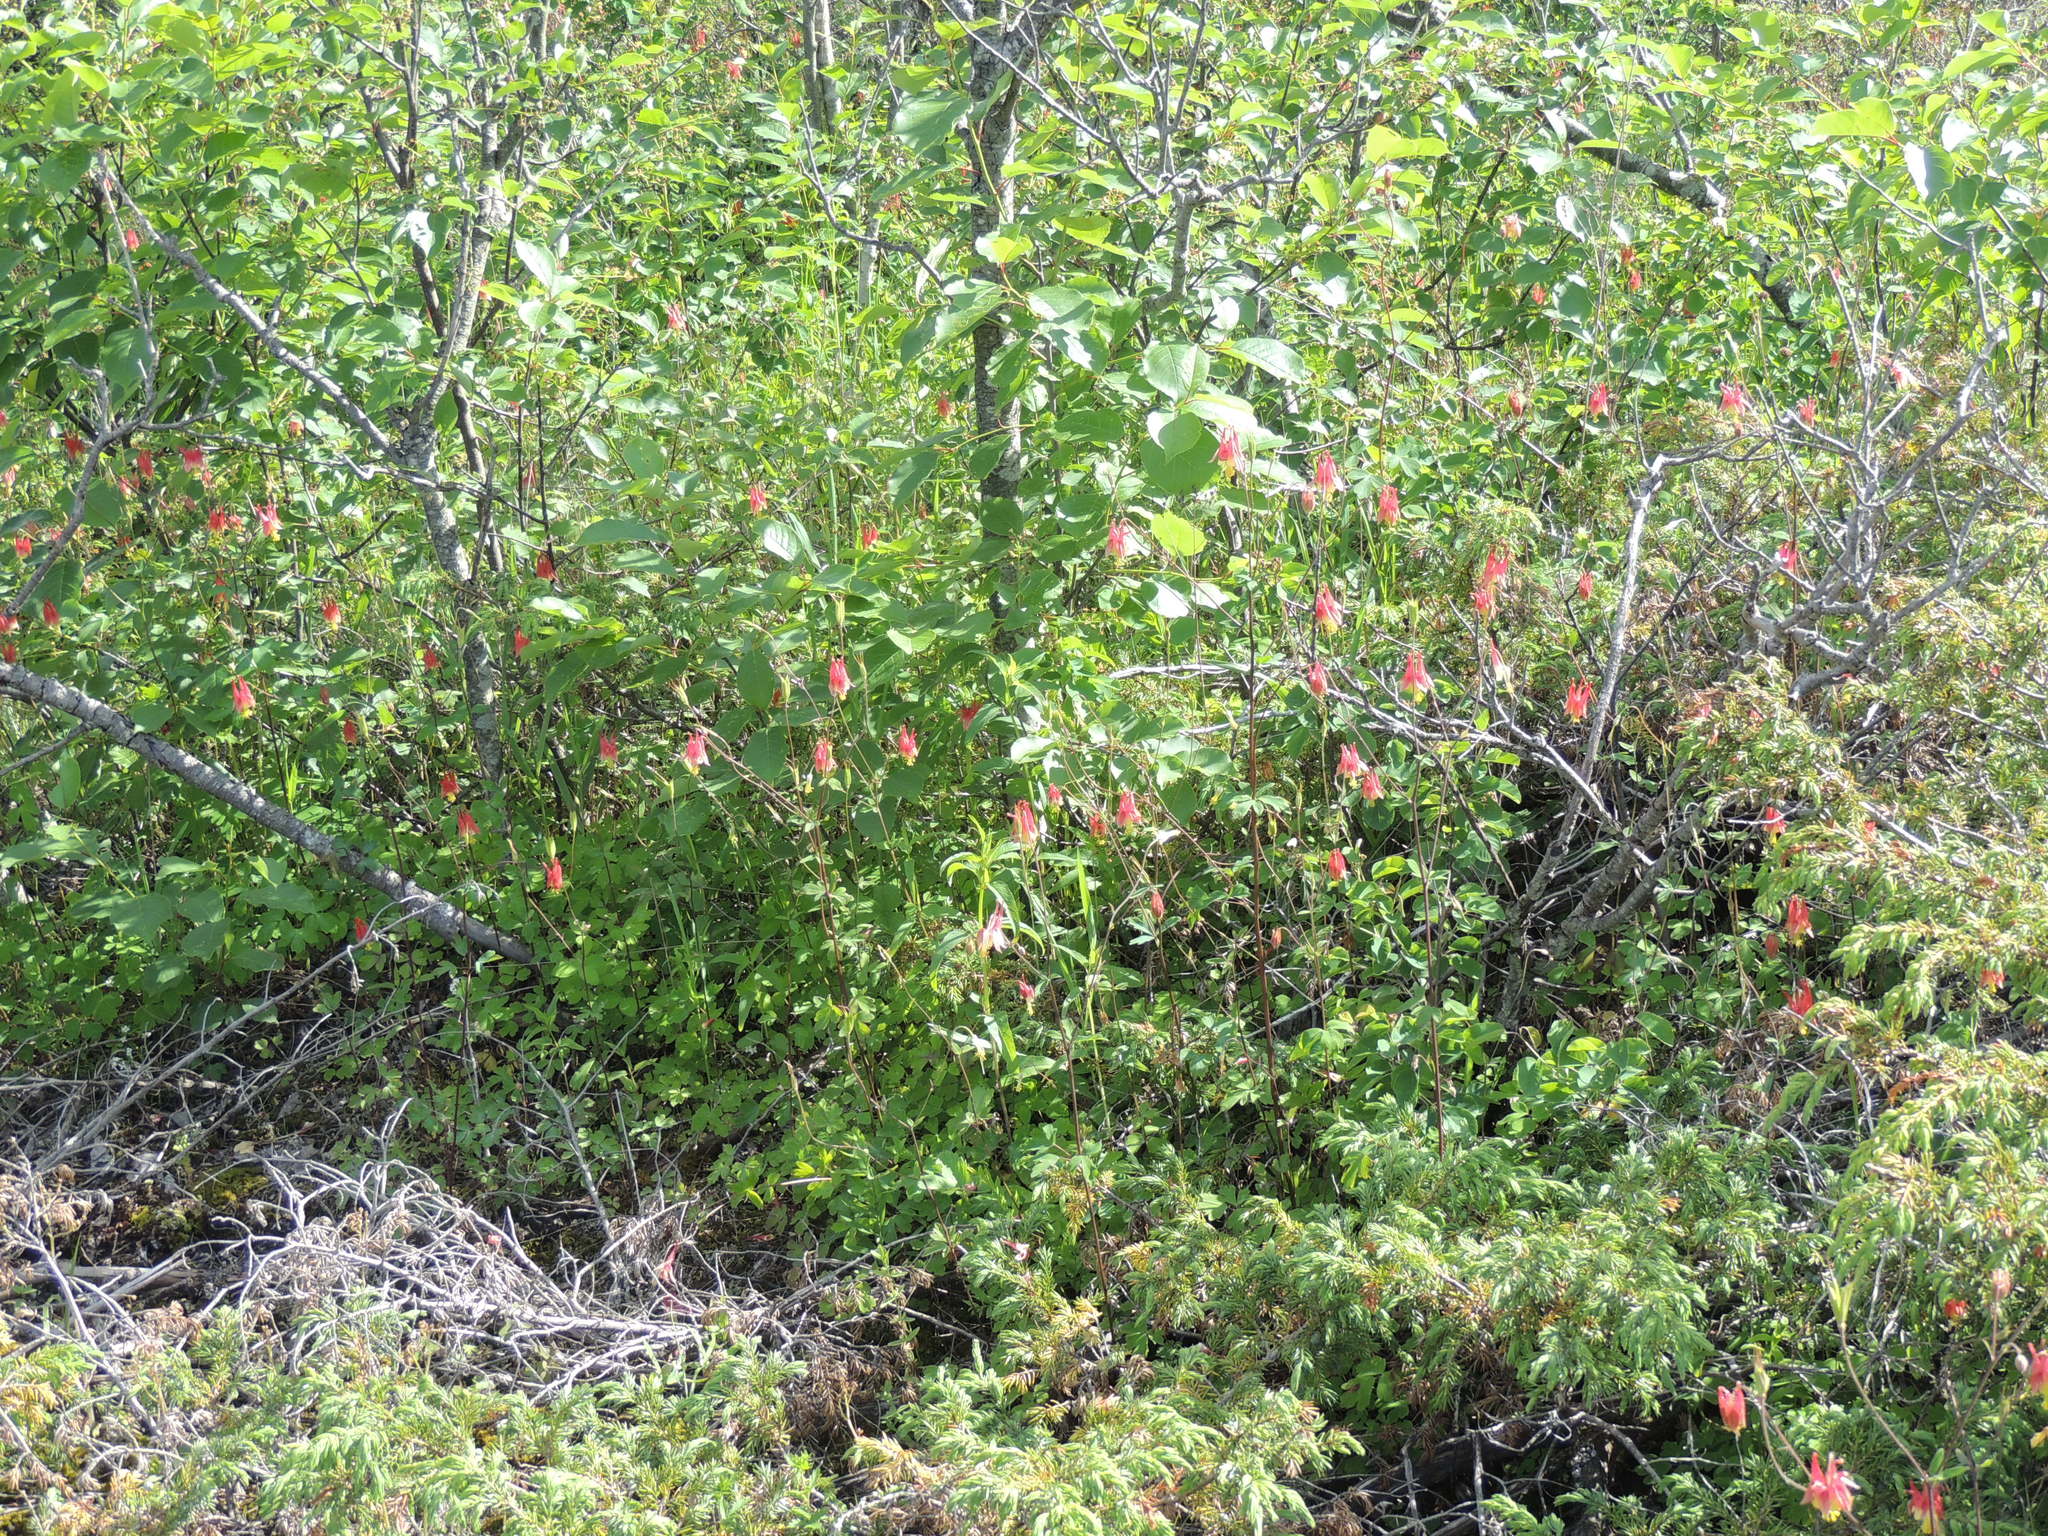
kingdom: Plantae
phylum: Tracheophyta
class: Magnoliopsida
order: Ranunculales
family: Ranunculaceae
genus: Aquilegia
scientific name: Aquilegia canadensis
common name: American columbine
